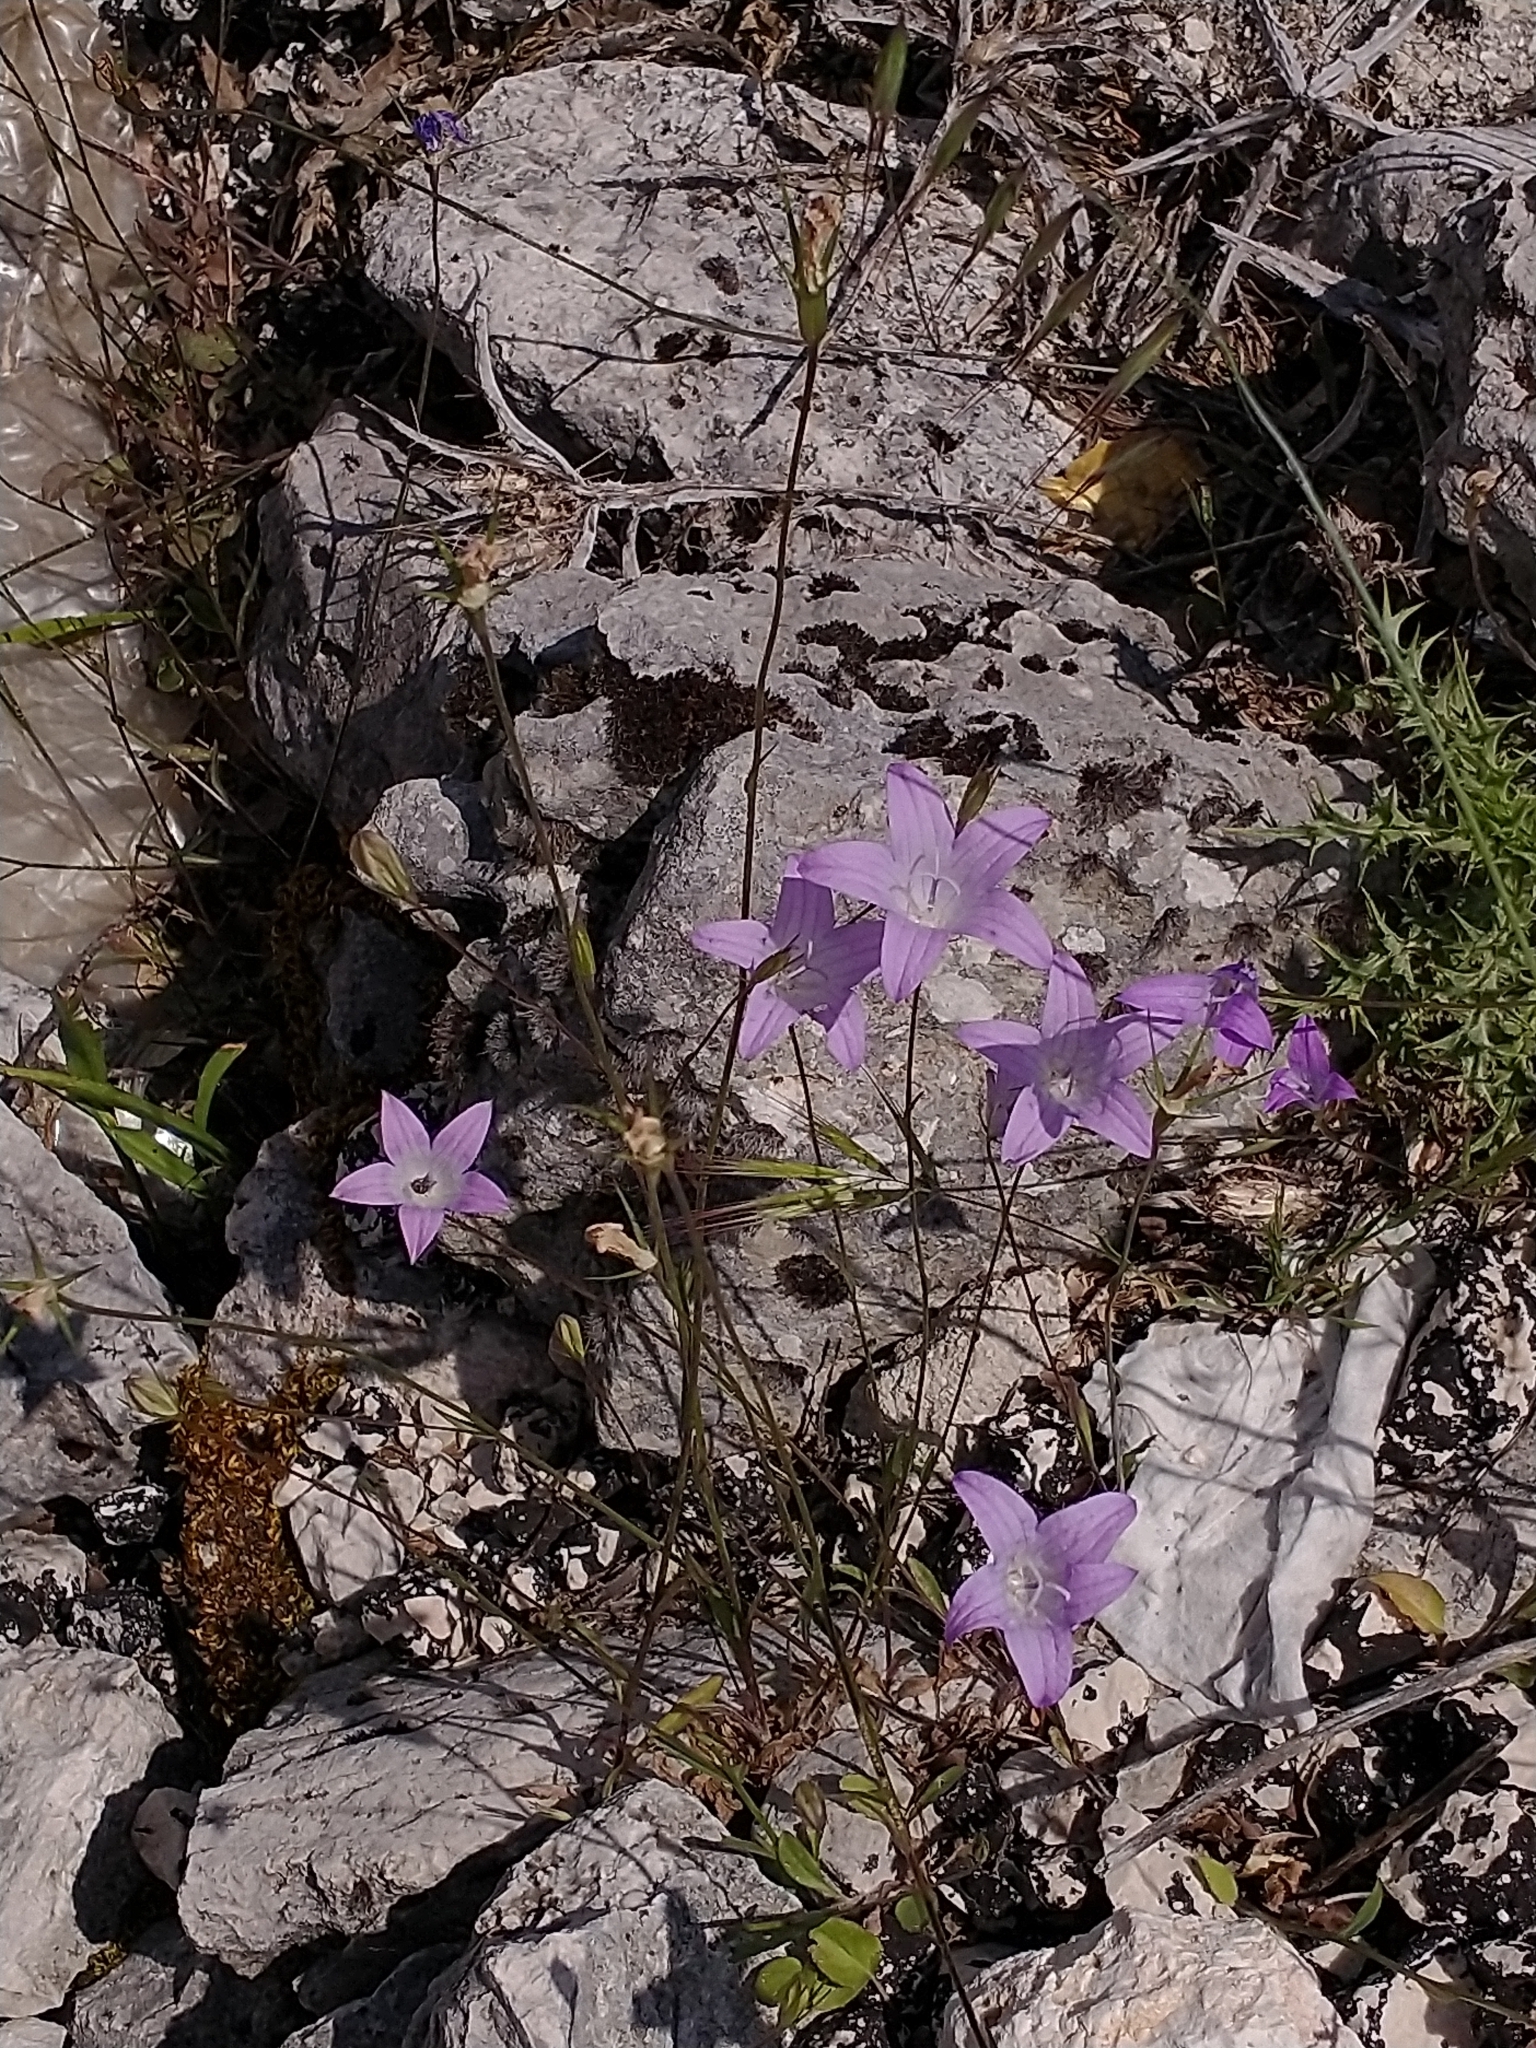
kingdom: Plantae
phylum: Tracheophyta
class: Magnoliopsida
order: Asterales
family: Campanulaceae
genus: Campanula
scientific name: Campanula patula
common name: Spreading bellflower
